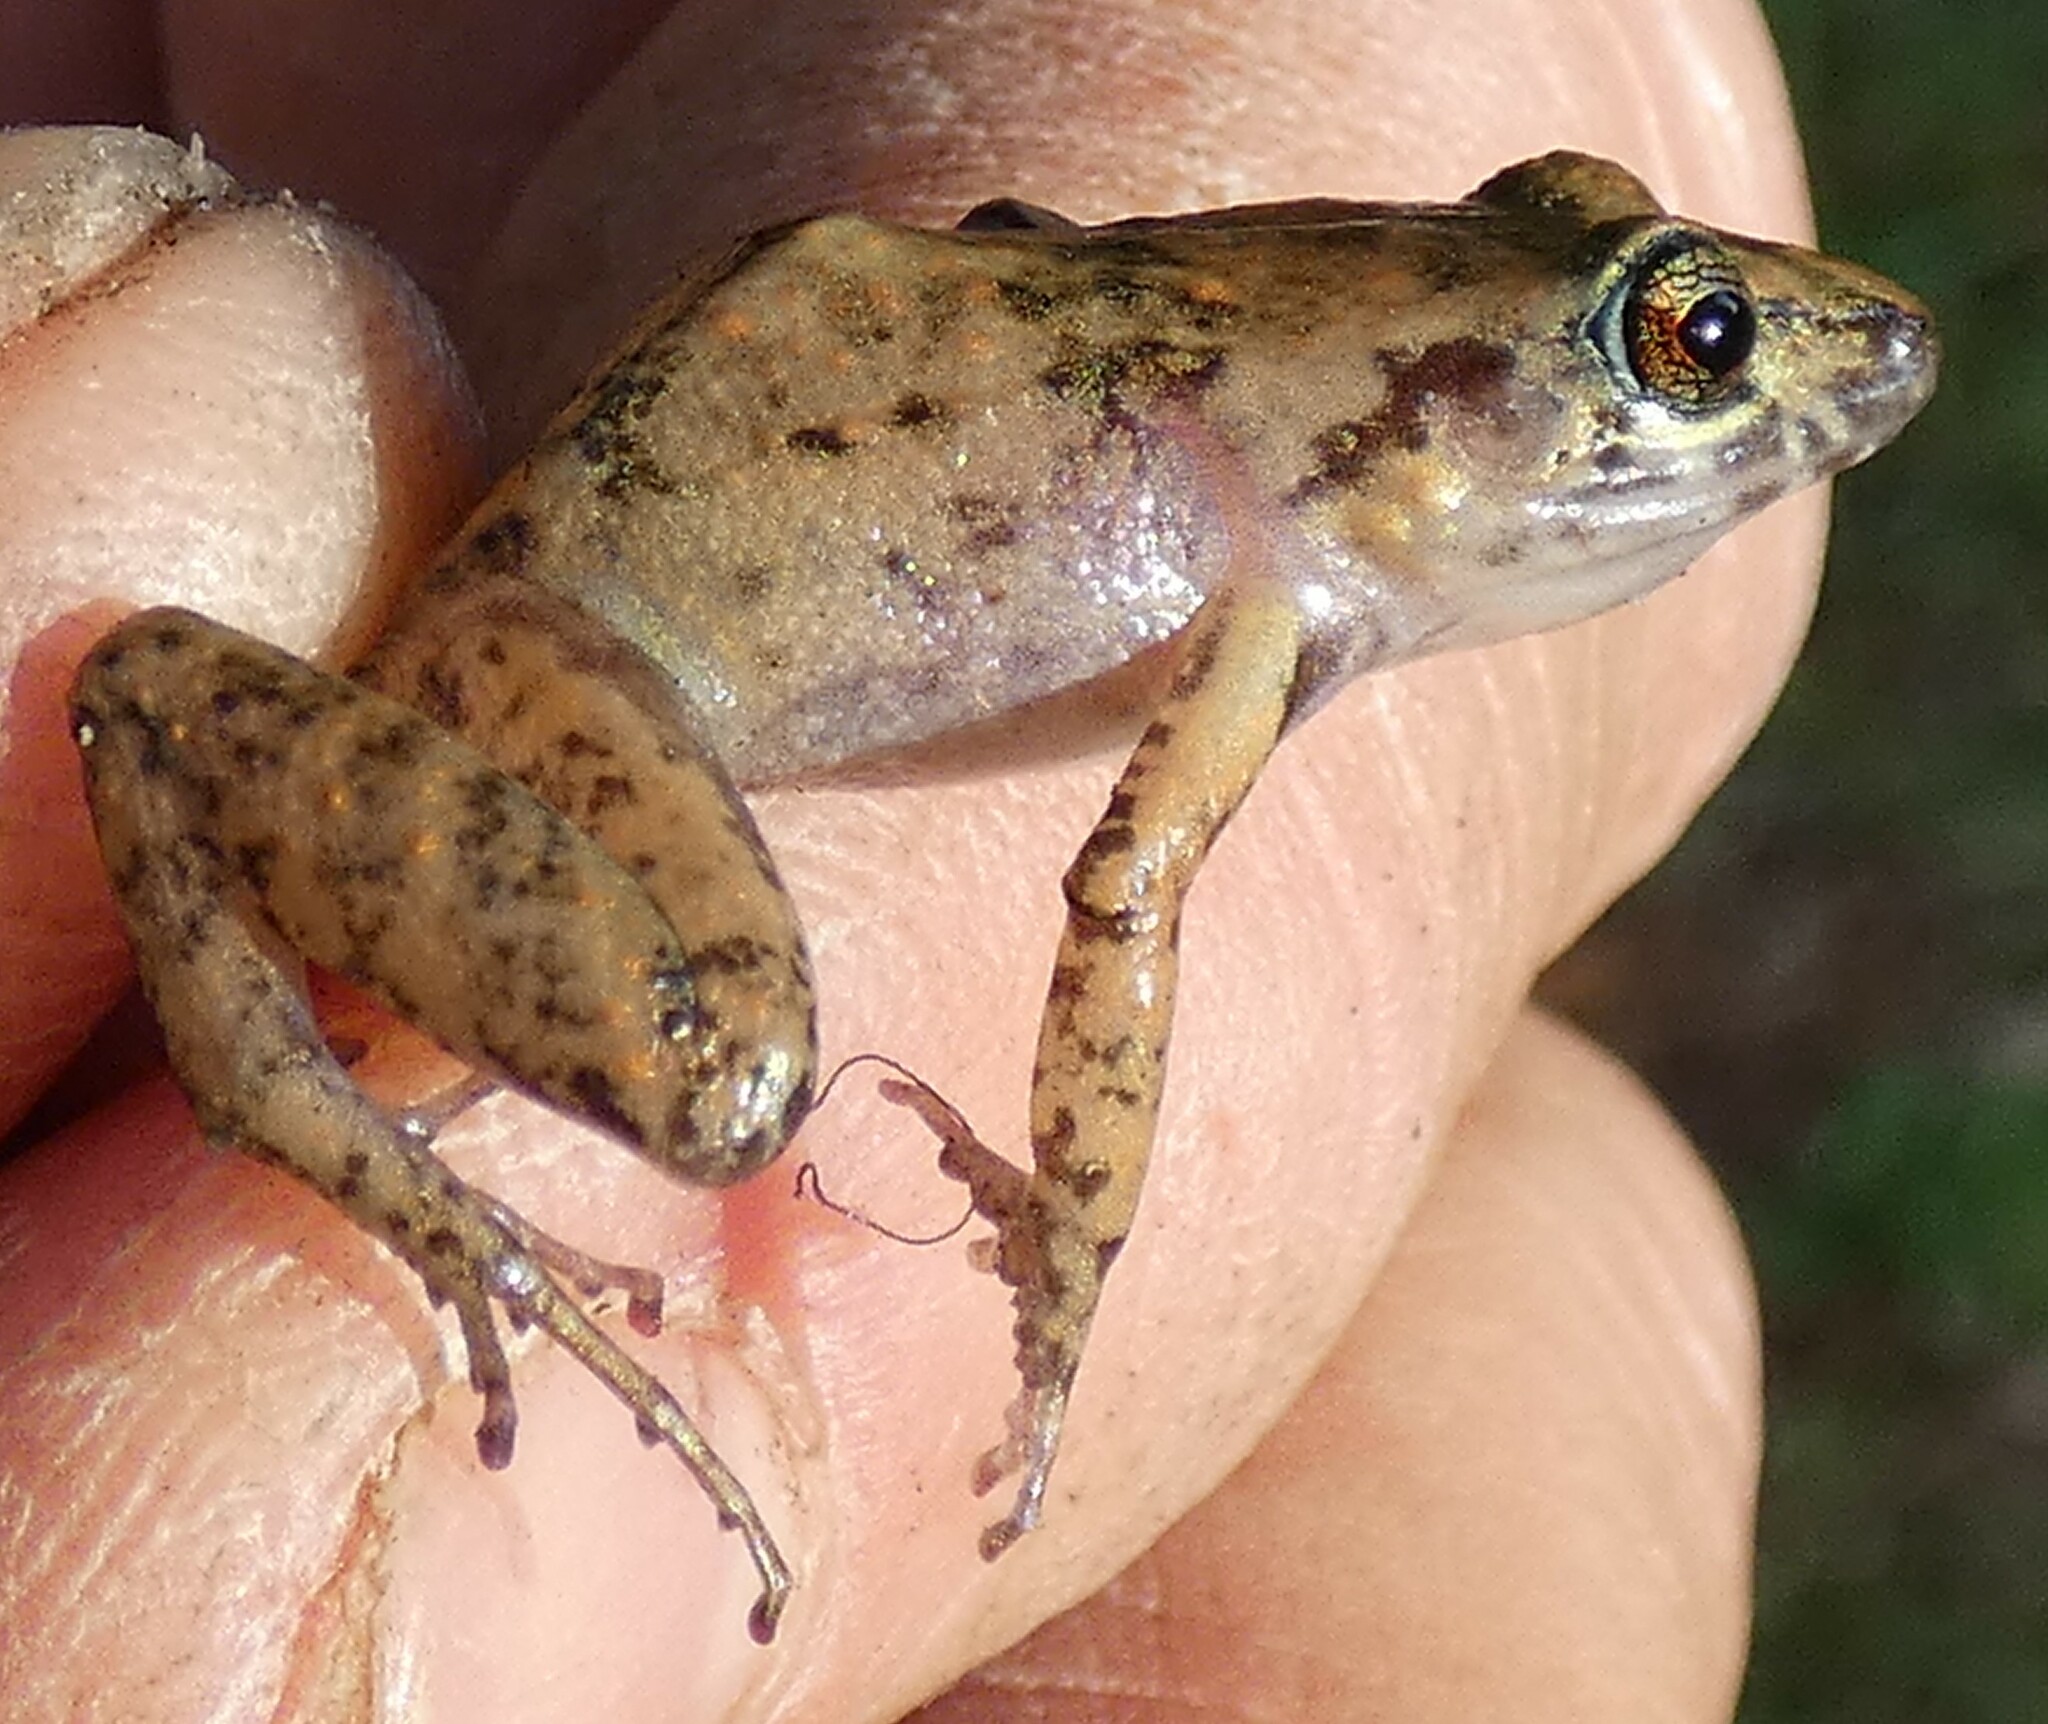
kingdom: Animalia
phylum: Chordata
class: Amphibia
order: Anura
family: Eleutherodactylidae
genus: Eleutherodactylus
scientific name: Eleutherodactylus planirostris
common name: Greenhouse frog
